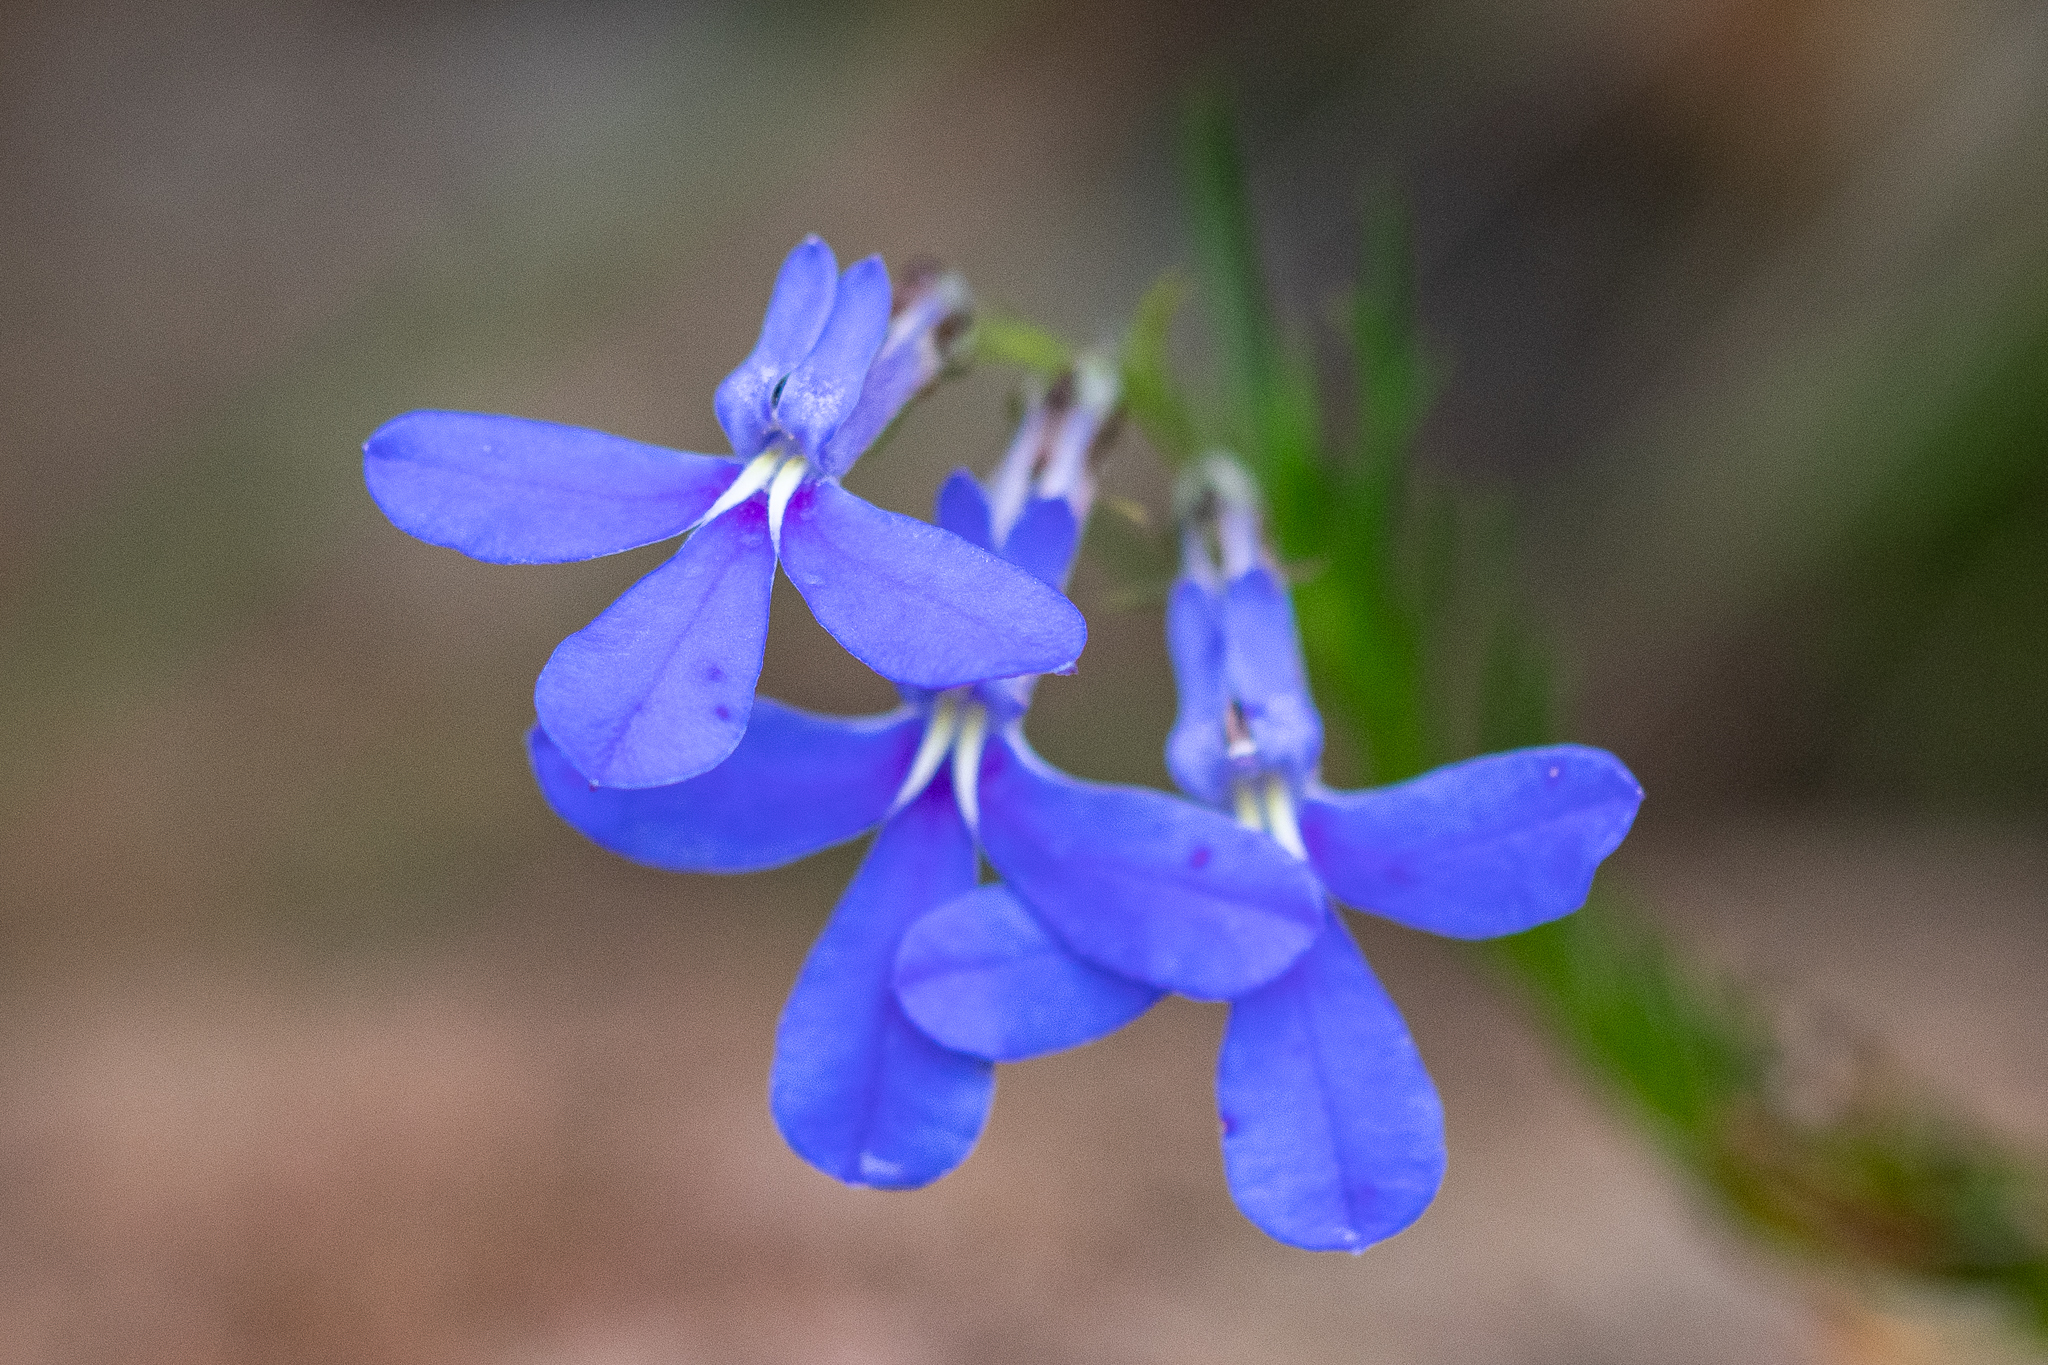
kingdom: Plantae
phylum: Tracheophyta
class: Magnoliopsida
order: Asterales
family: Campanulaceae
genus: Lobelia
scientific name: Lobelia pinifolia
